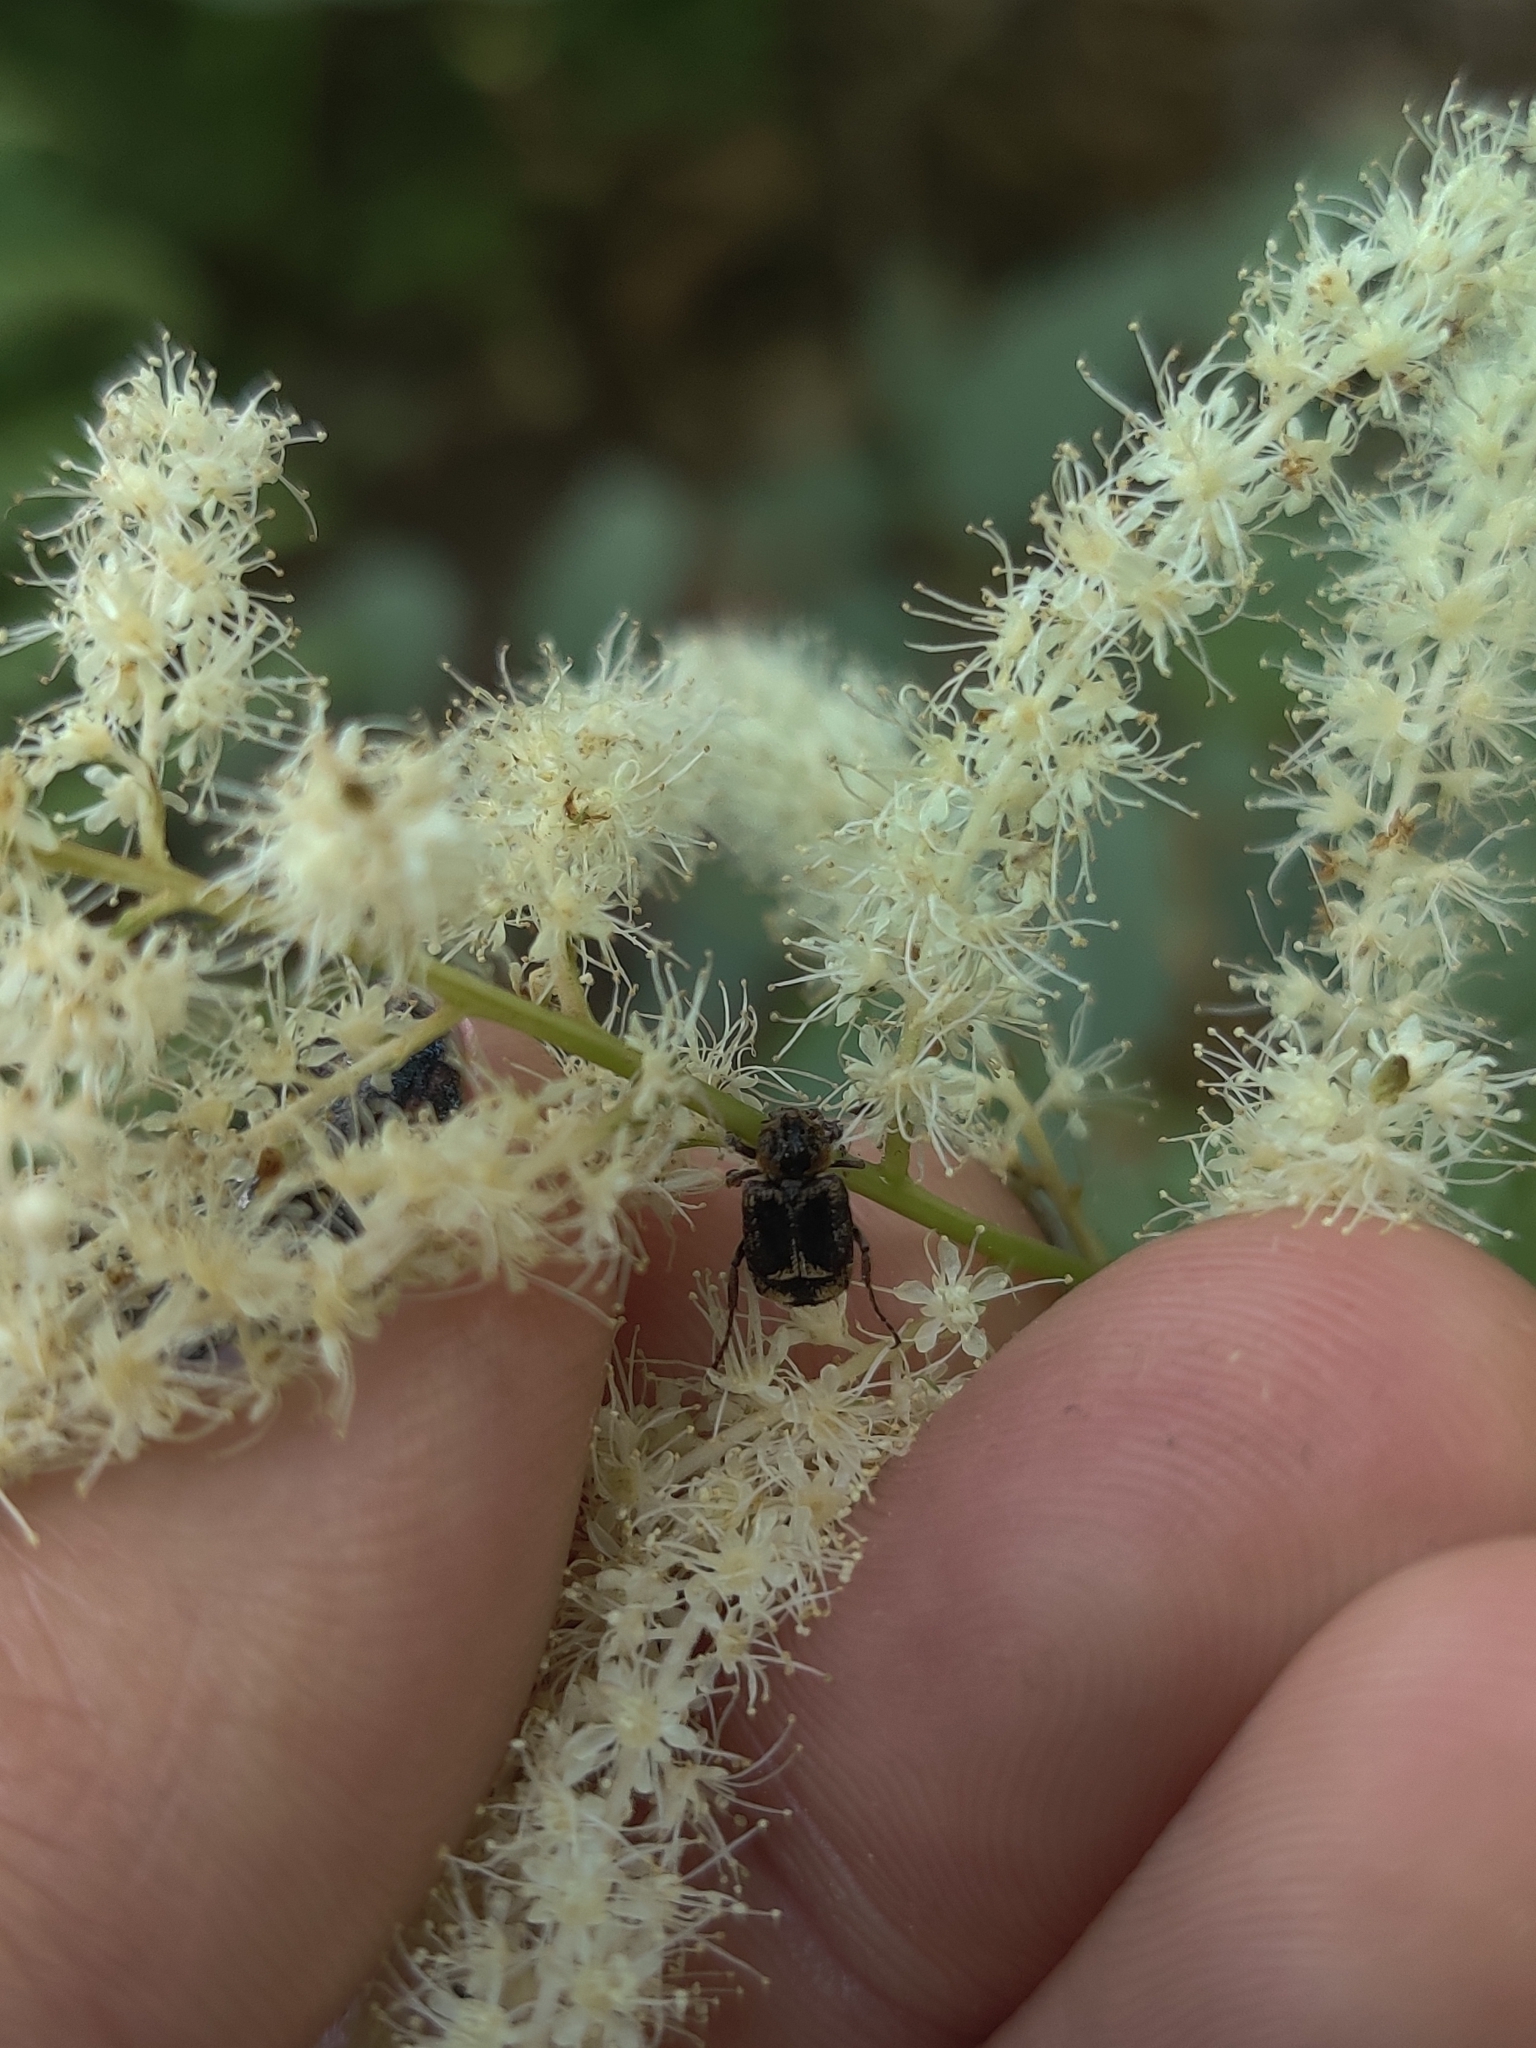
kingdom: Animalia
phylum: Arthropoda
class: Insecta
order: Coleoptera
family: Scarabaeidae
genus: Valgus
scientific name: Valgus canaliculatus
